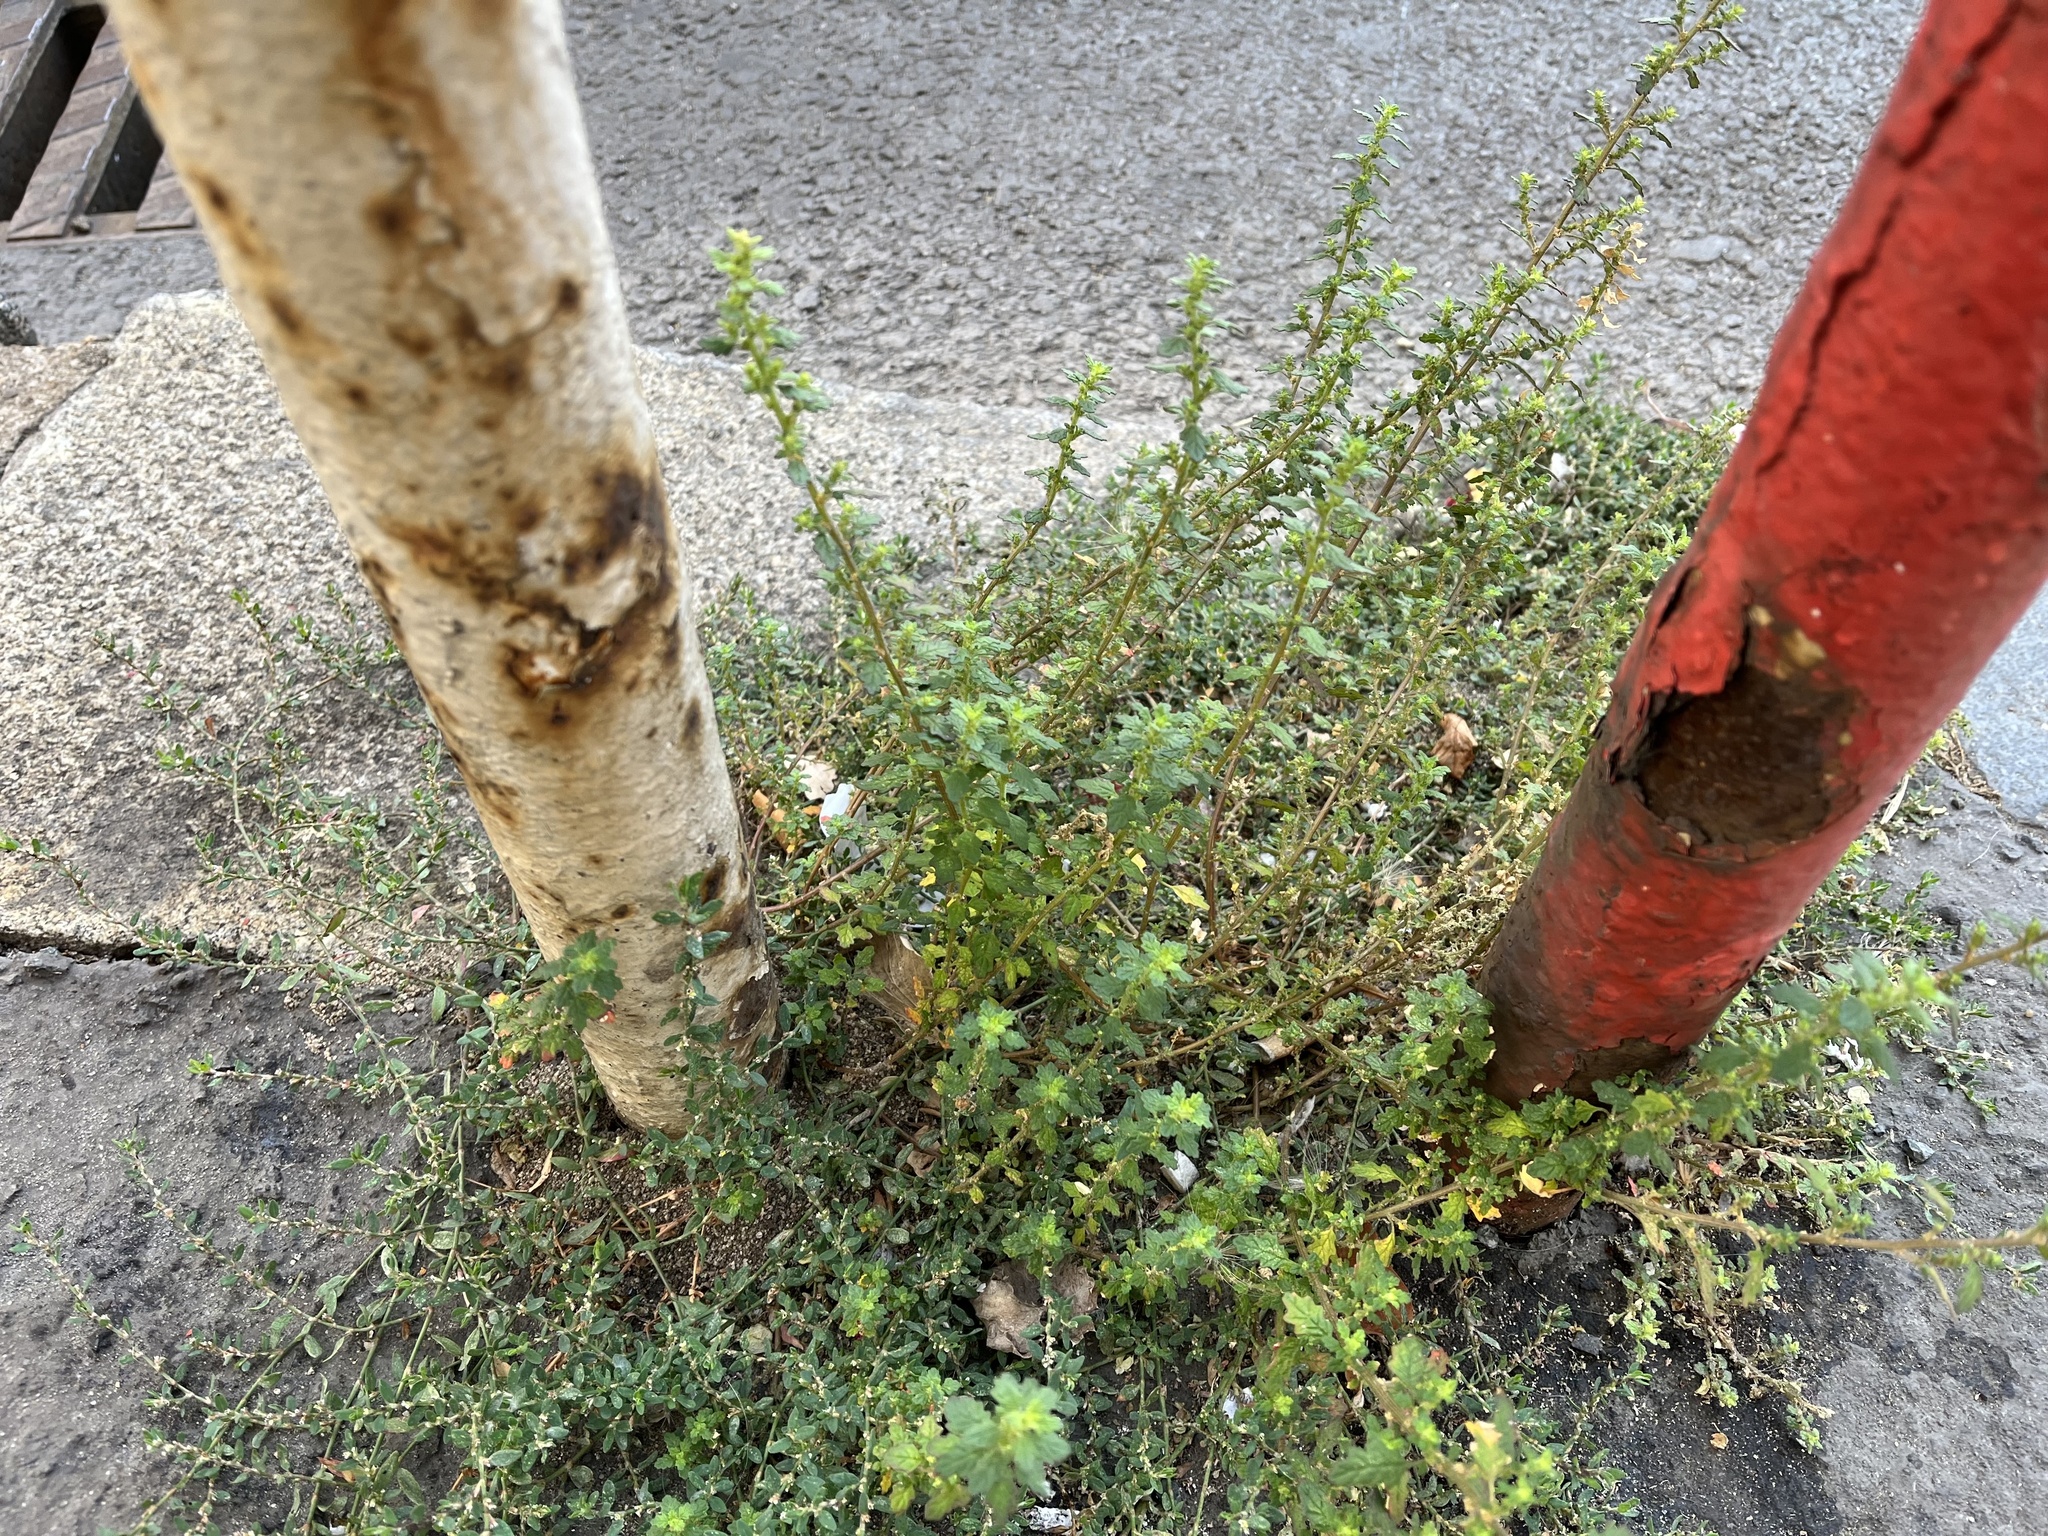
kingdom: Plantae
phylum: Tracheophyta
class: Magnoliopsida
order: Caryophyllales
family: Amaranthaceae
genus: Dysphania
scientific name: Dysphania pumilio
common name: Clammy goosefoot
